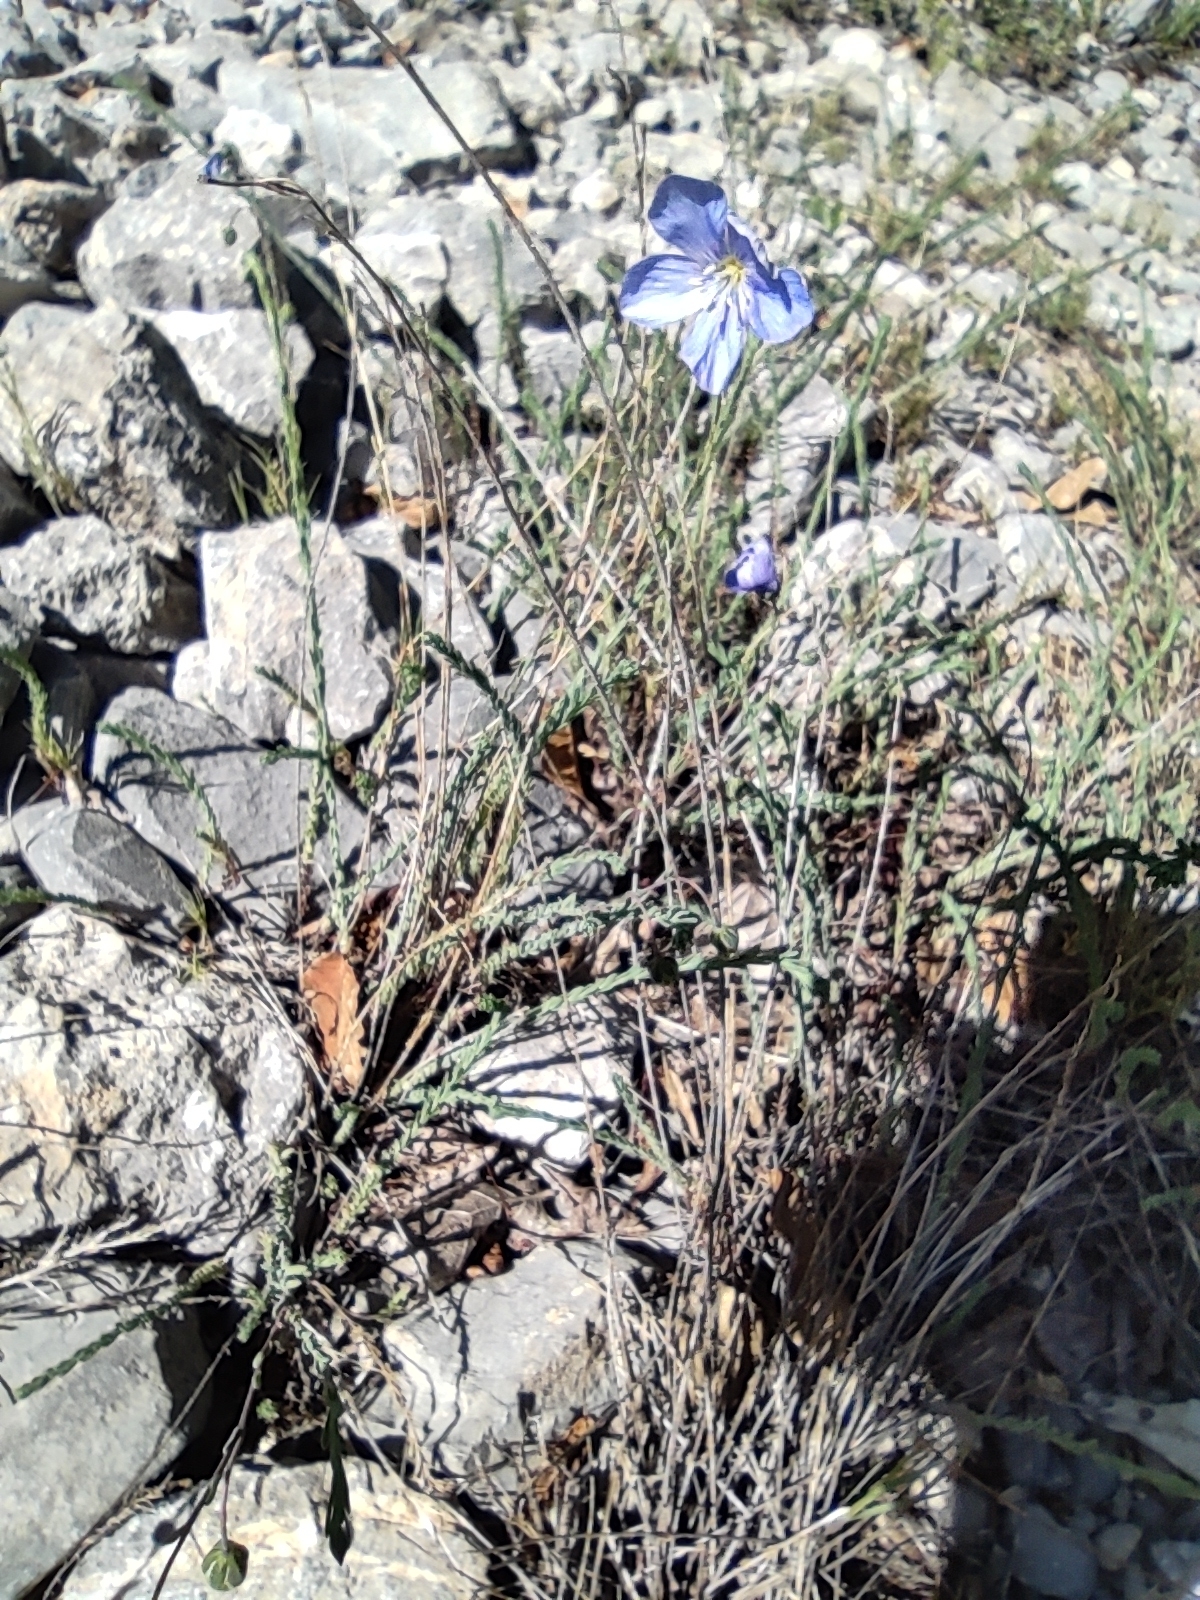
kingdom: Plantae
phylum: Tracheophyta
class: Magnoliopsida
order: Malpighiales
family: Linaceae
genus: Linum
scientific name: Linum lewisii
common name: Prairie flax
